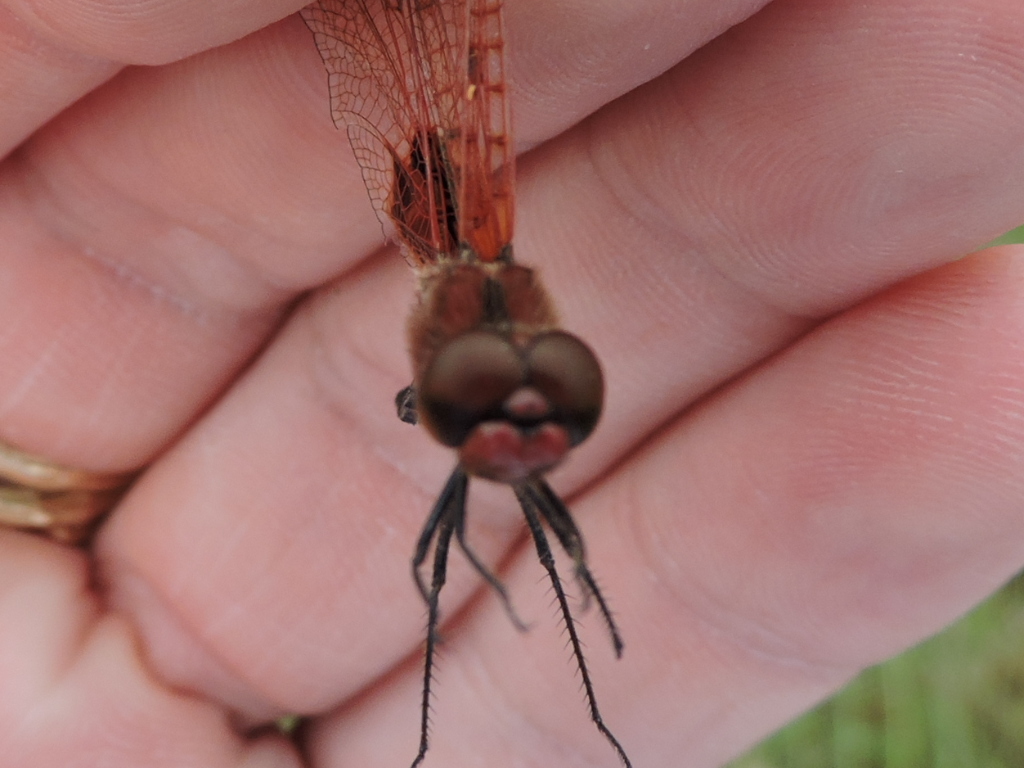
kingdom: Animalia
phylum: Arthropoda
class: Insecta
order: Odonata
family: Libellulidae
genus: Celithemis
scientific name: Celithemis elisa
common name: Calico pennant
